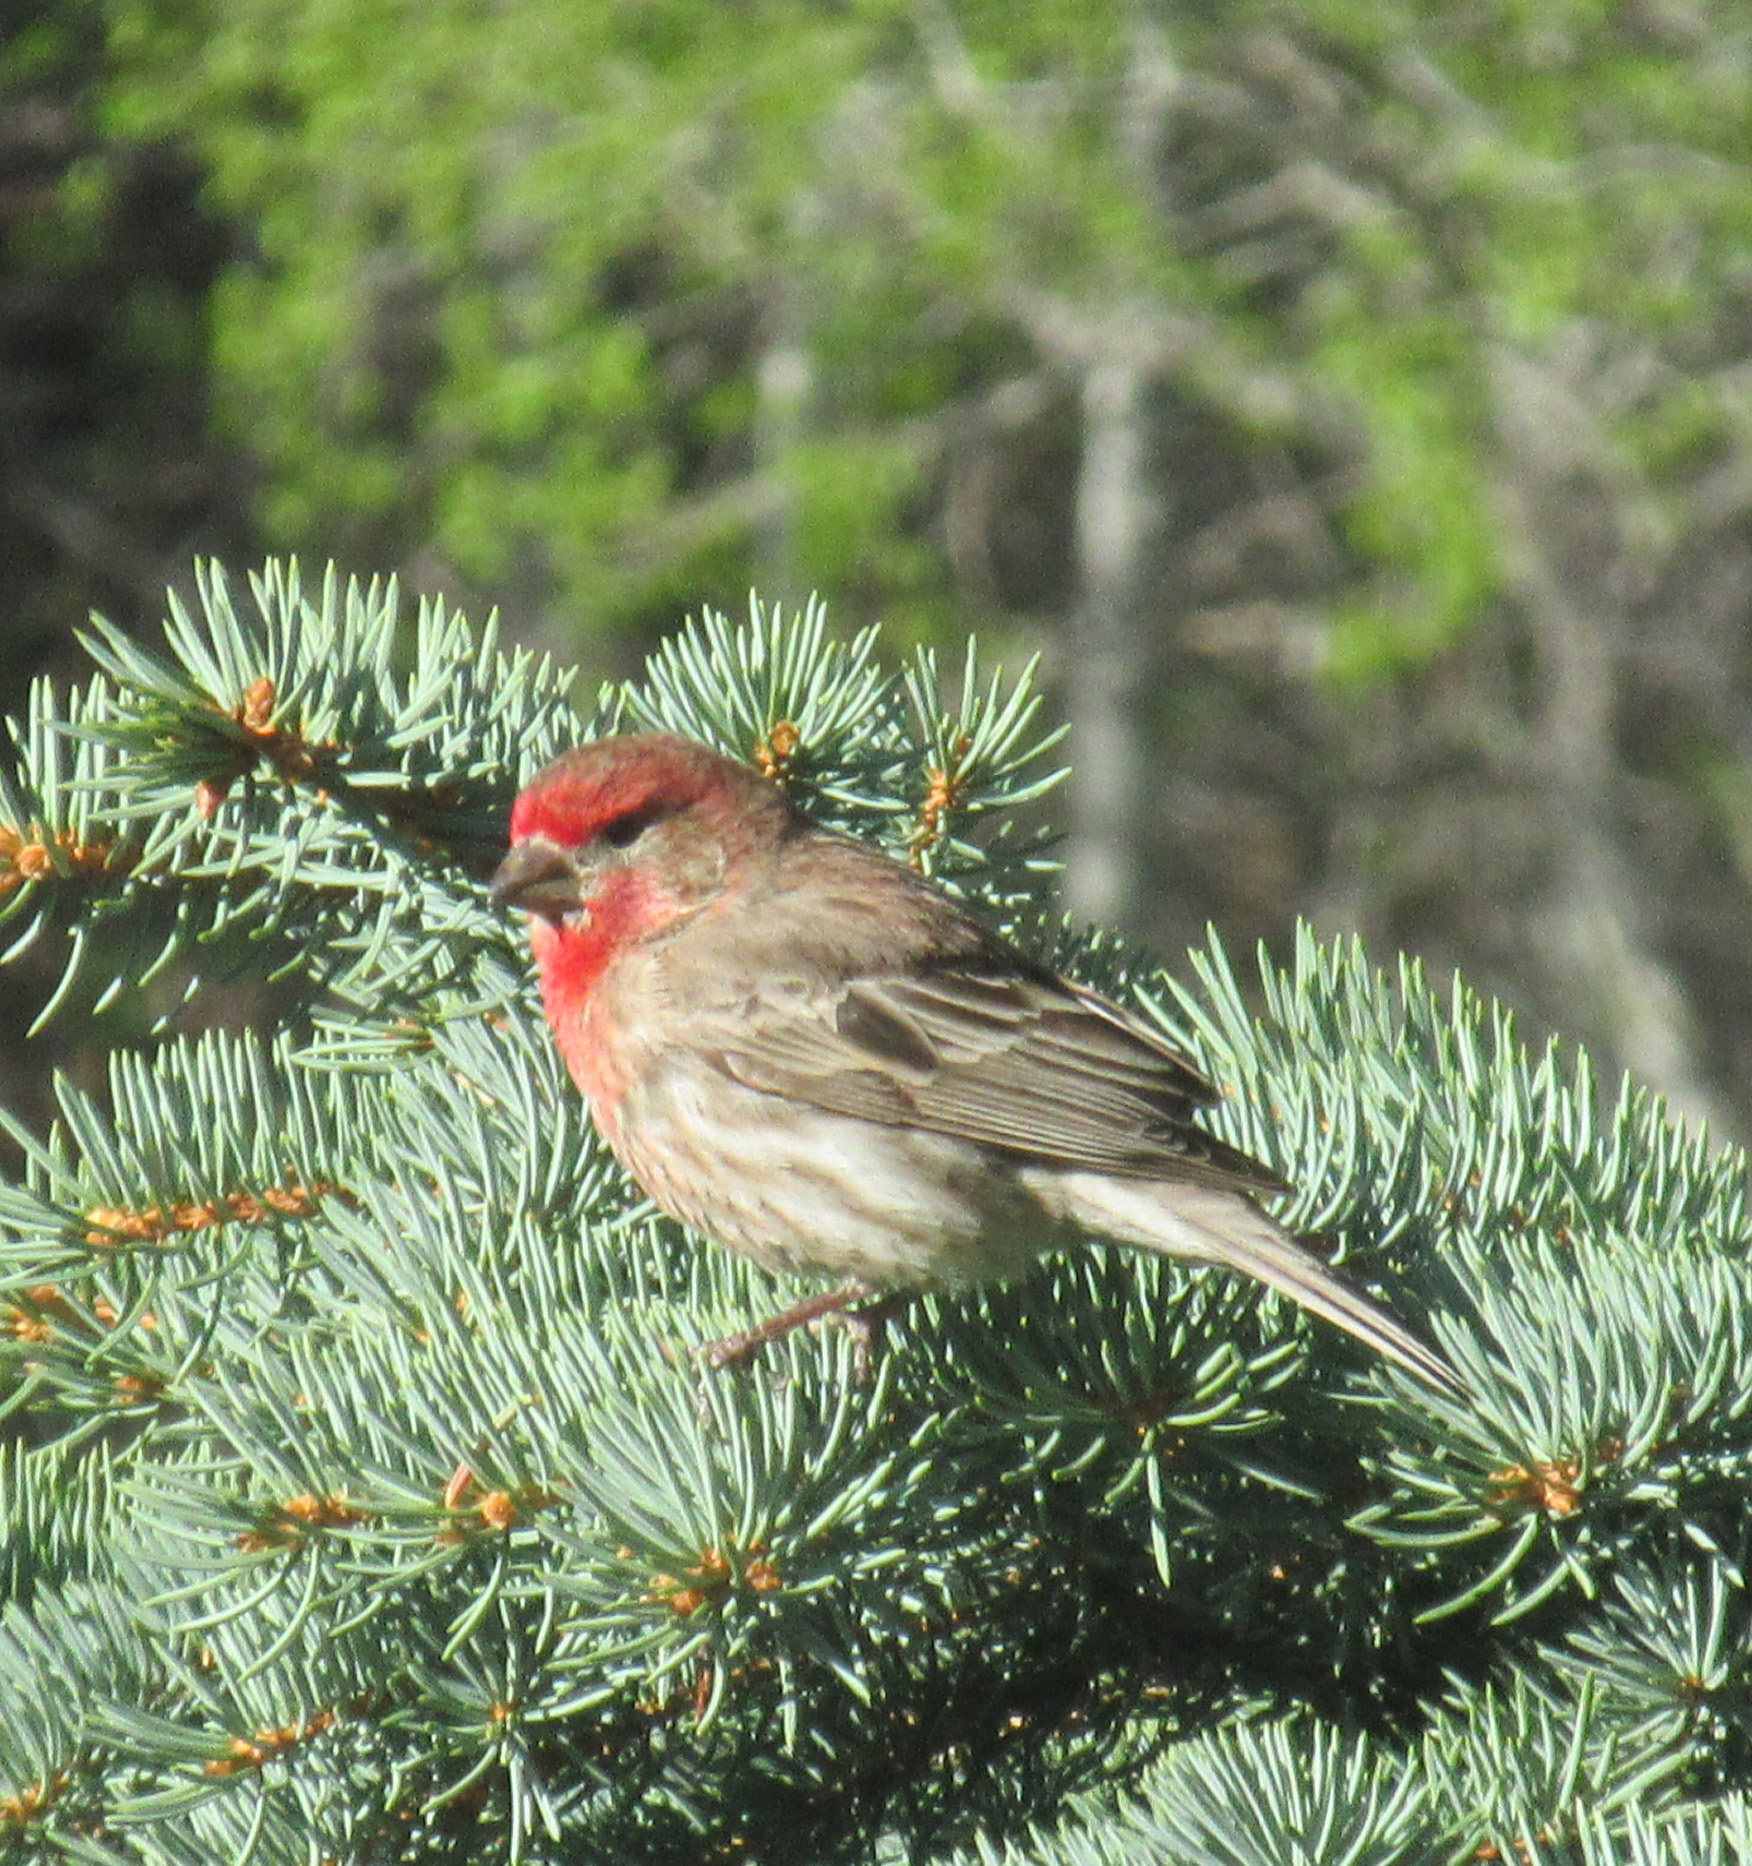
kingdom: Animalia
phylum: Chordata
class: Aves
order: Passeriformes
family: Fringillidae
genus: Haemorhous
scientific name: Haemorhous mexicanus
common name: House finch
